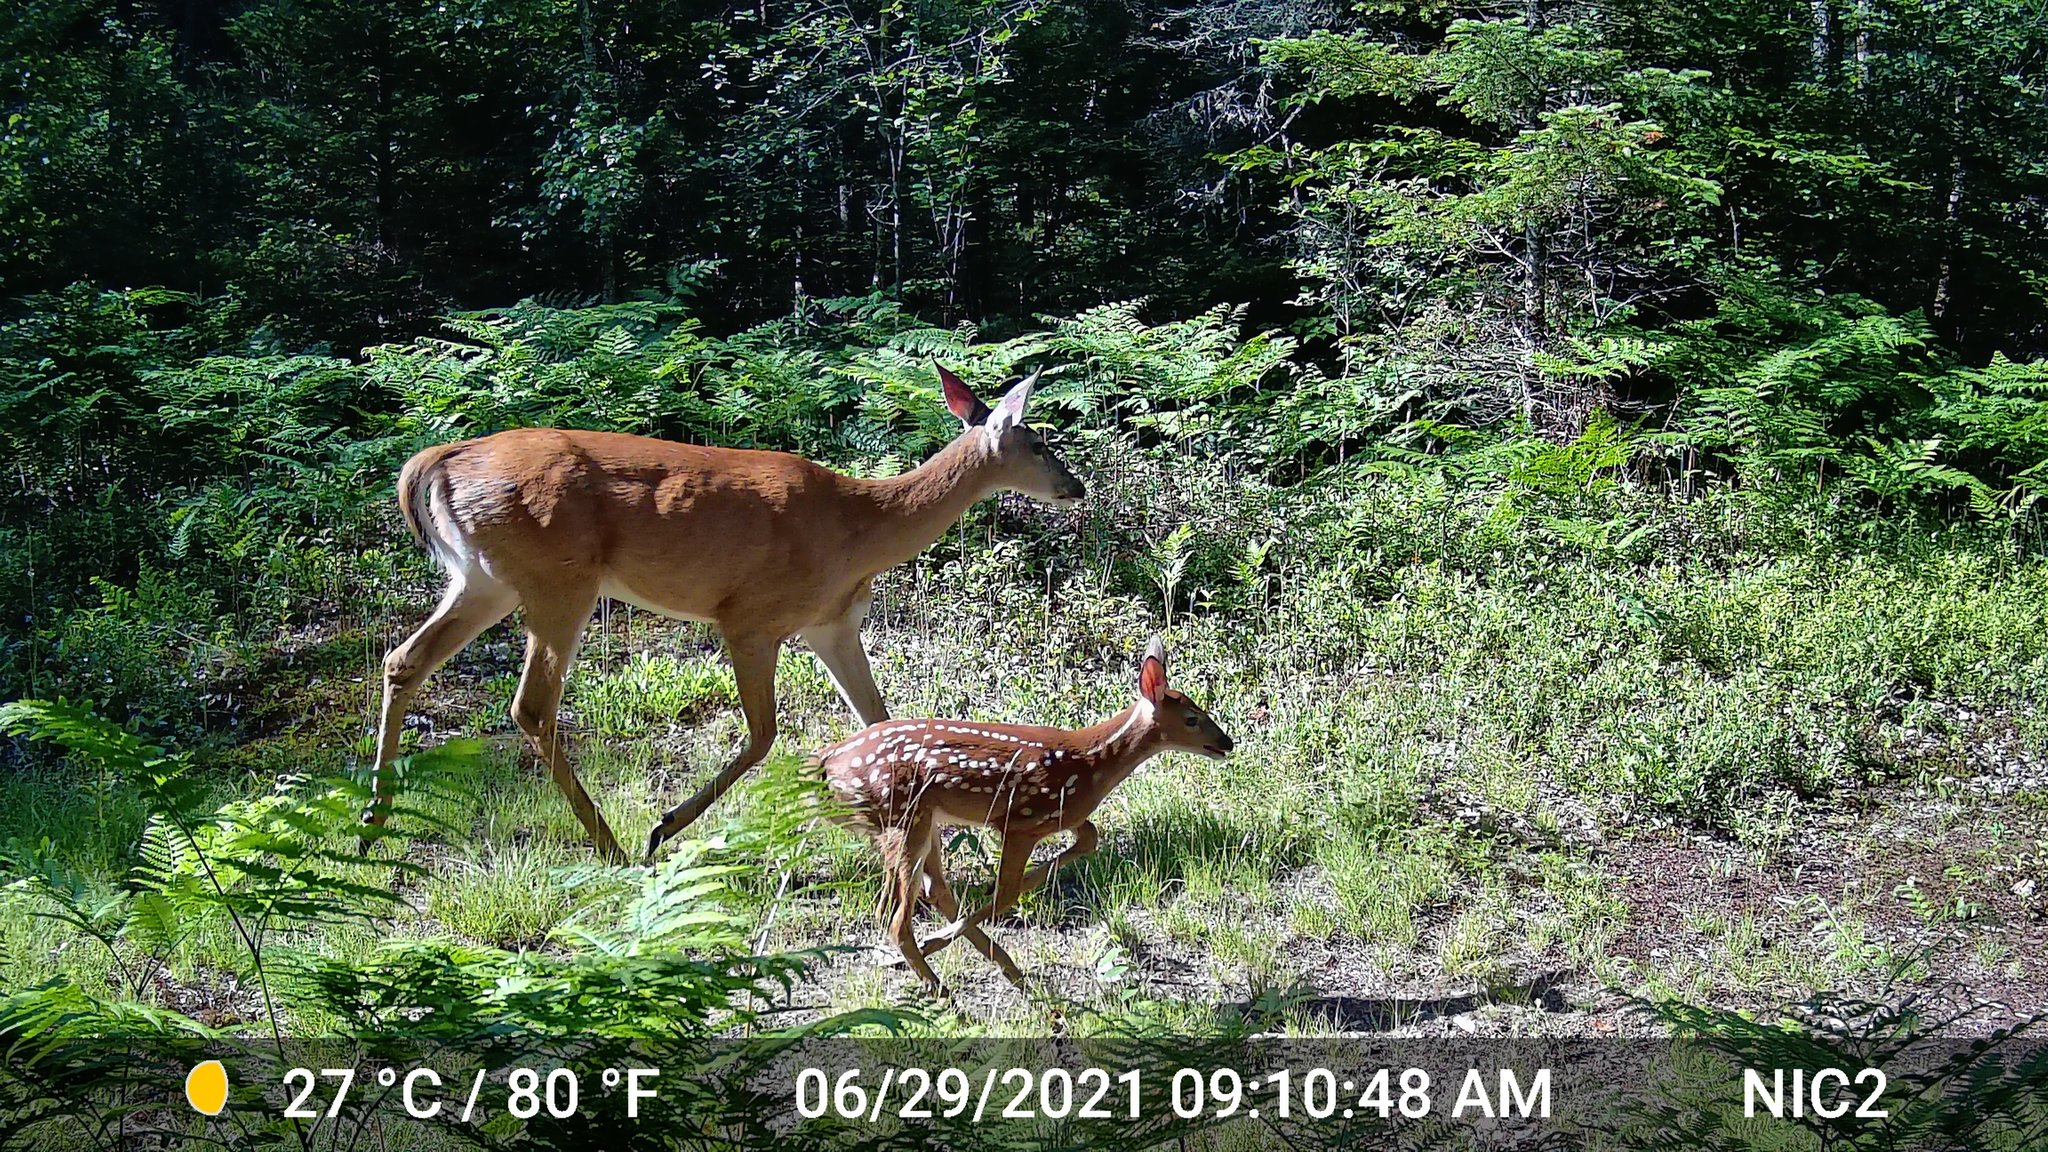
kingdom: Animalia
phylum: Chordata
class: Mammalia
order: Artiodactyla
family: Cervidae
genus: Odocoileus
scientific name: Odocoileus virginianus
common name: White-tailed deer
